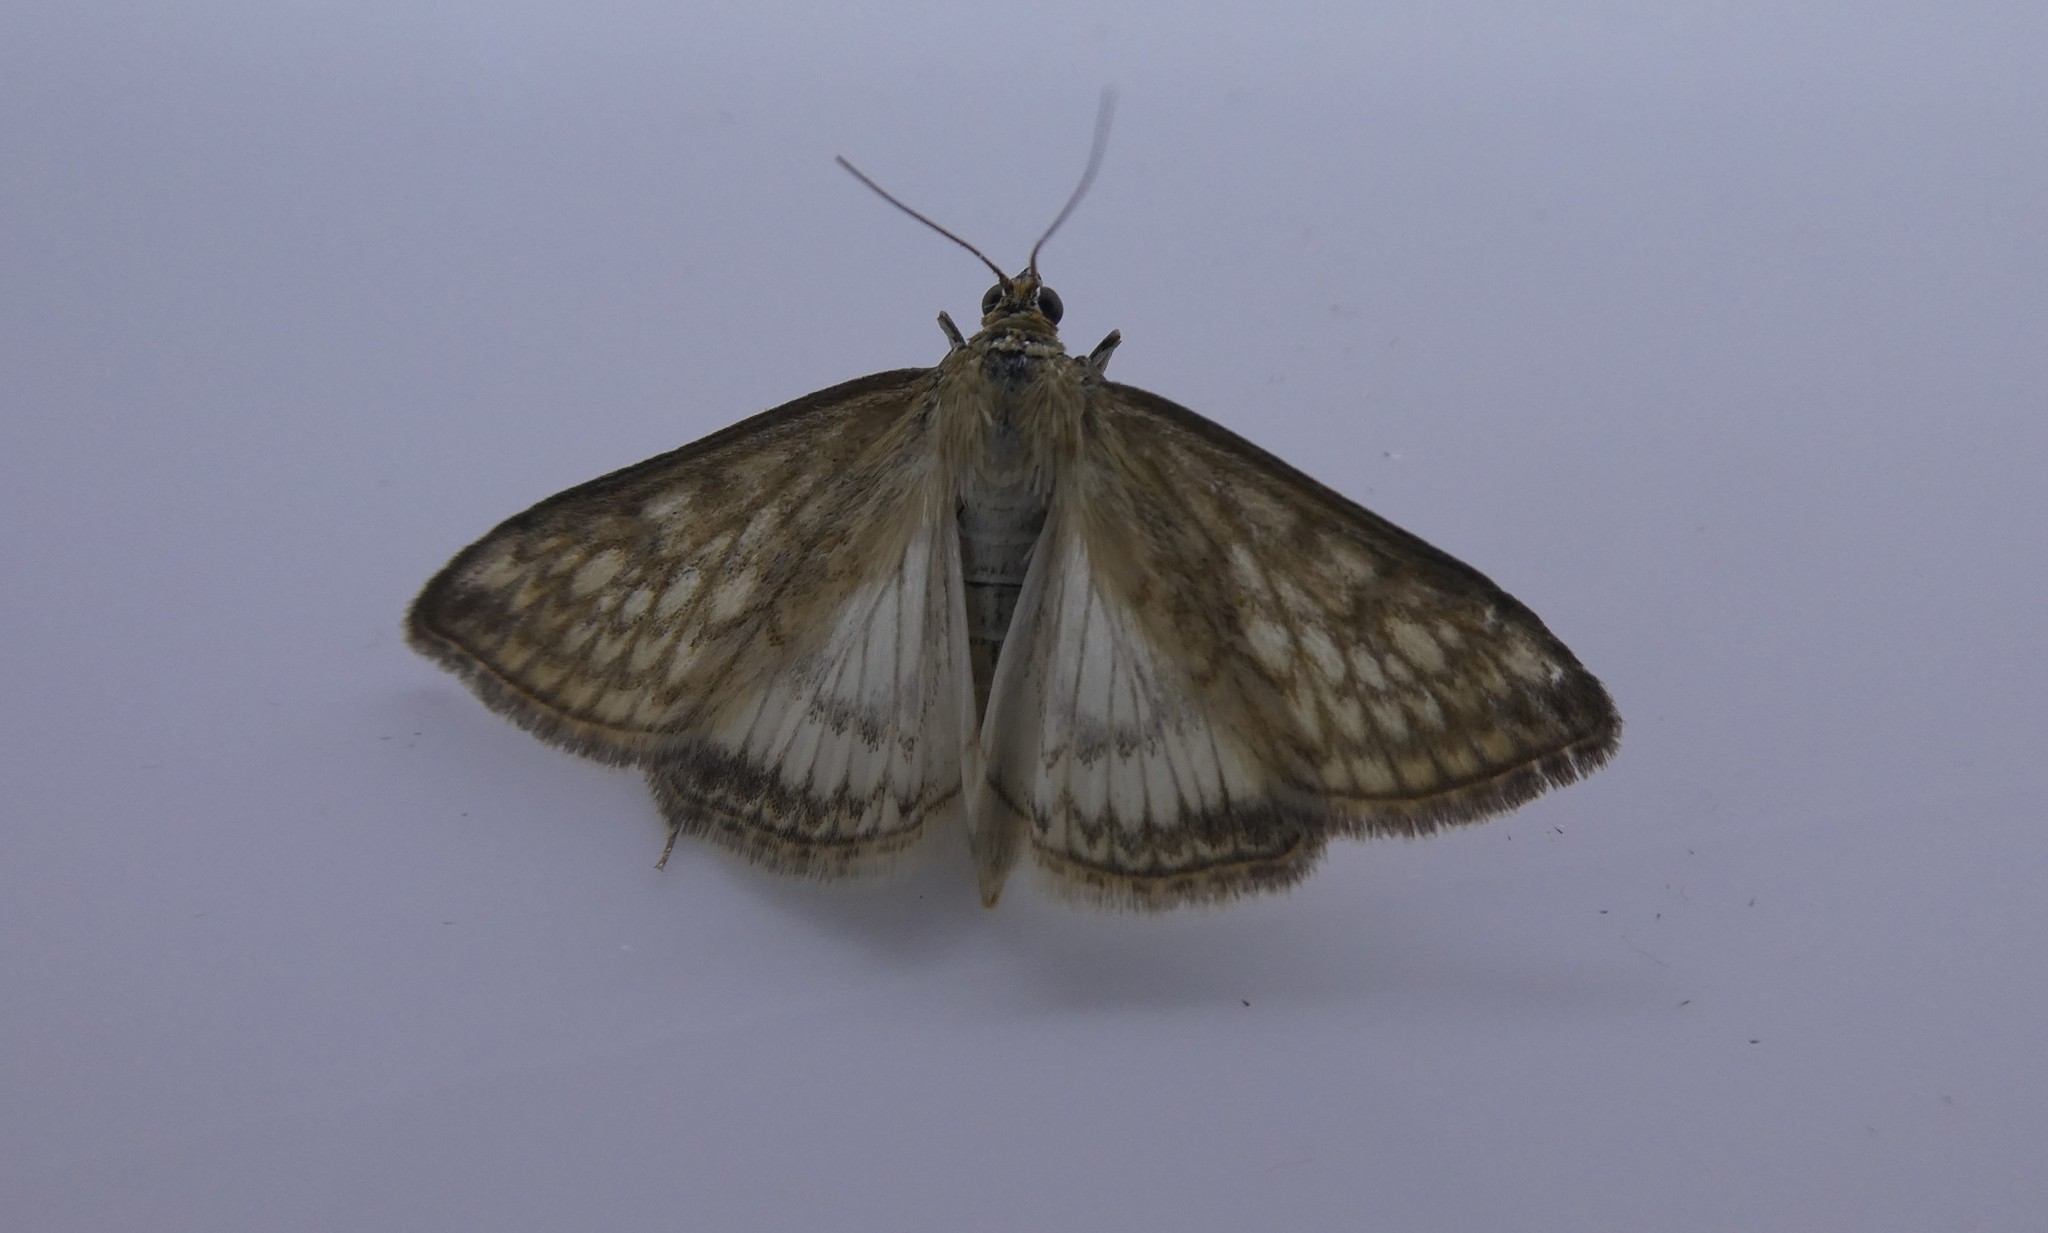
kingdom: Animalia
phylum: Arthropoda
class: Insecta
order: Lepidoptera
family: Crambidae
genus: Sitochroa
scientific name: Sitochroa chortalis
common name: Dimorphic sitochroa moth
